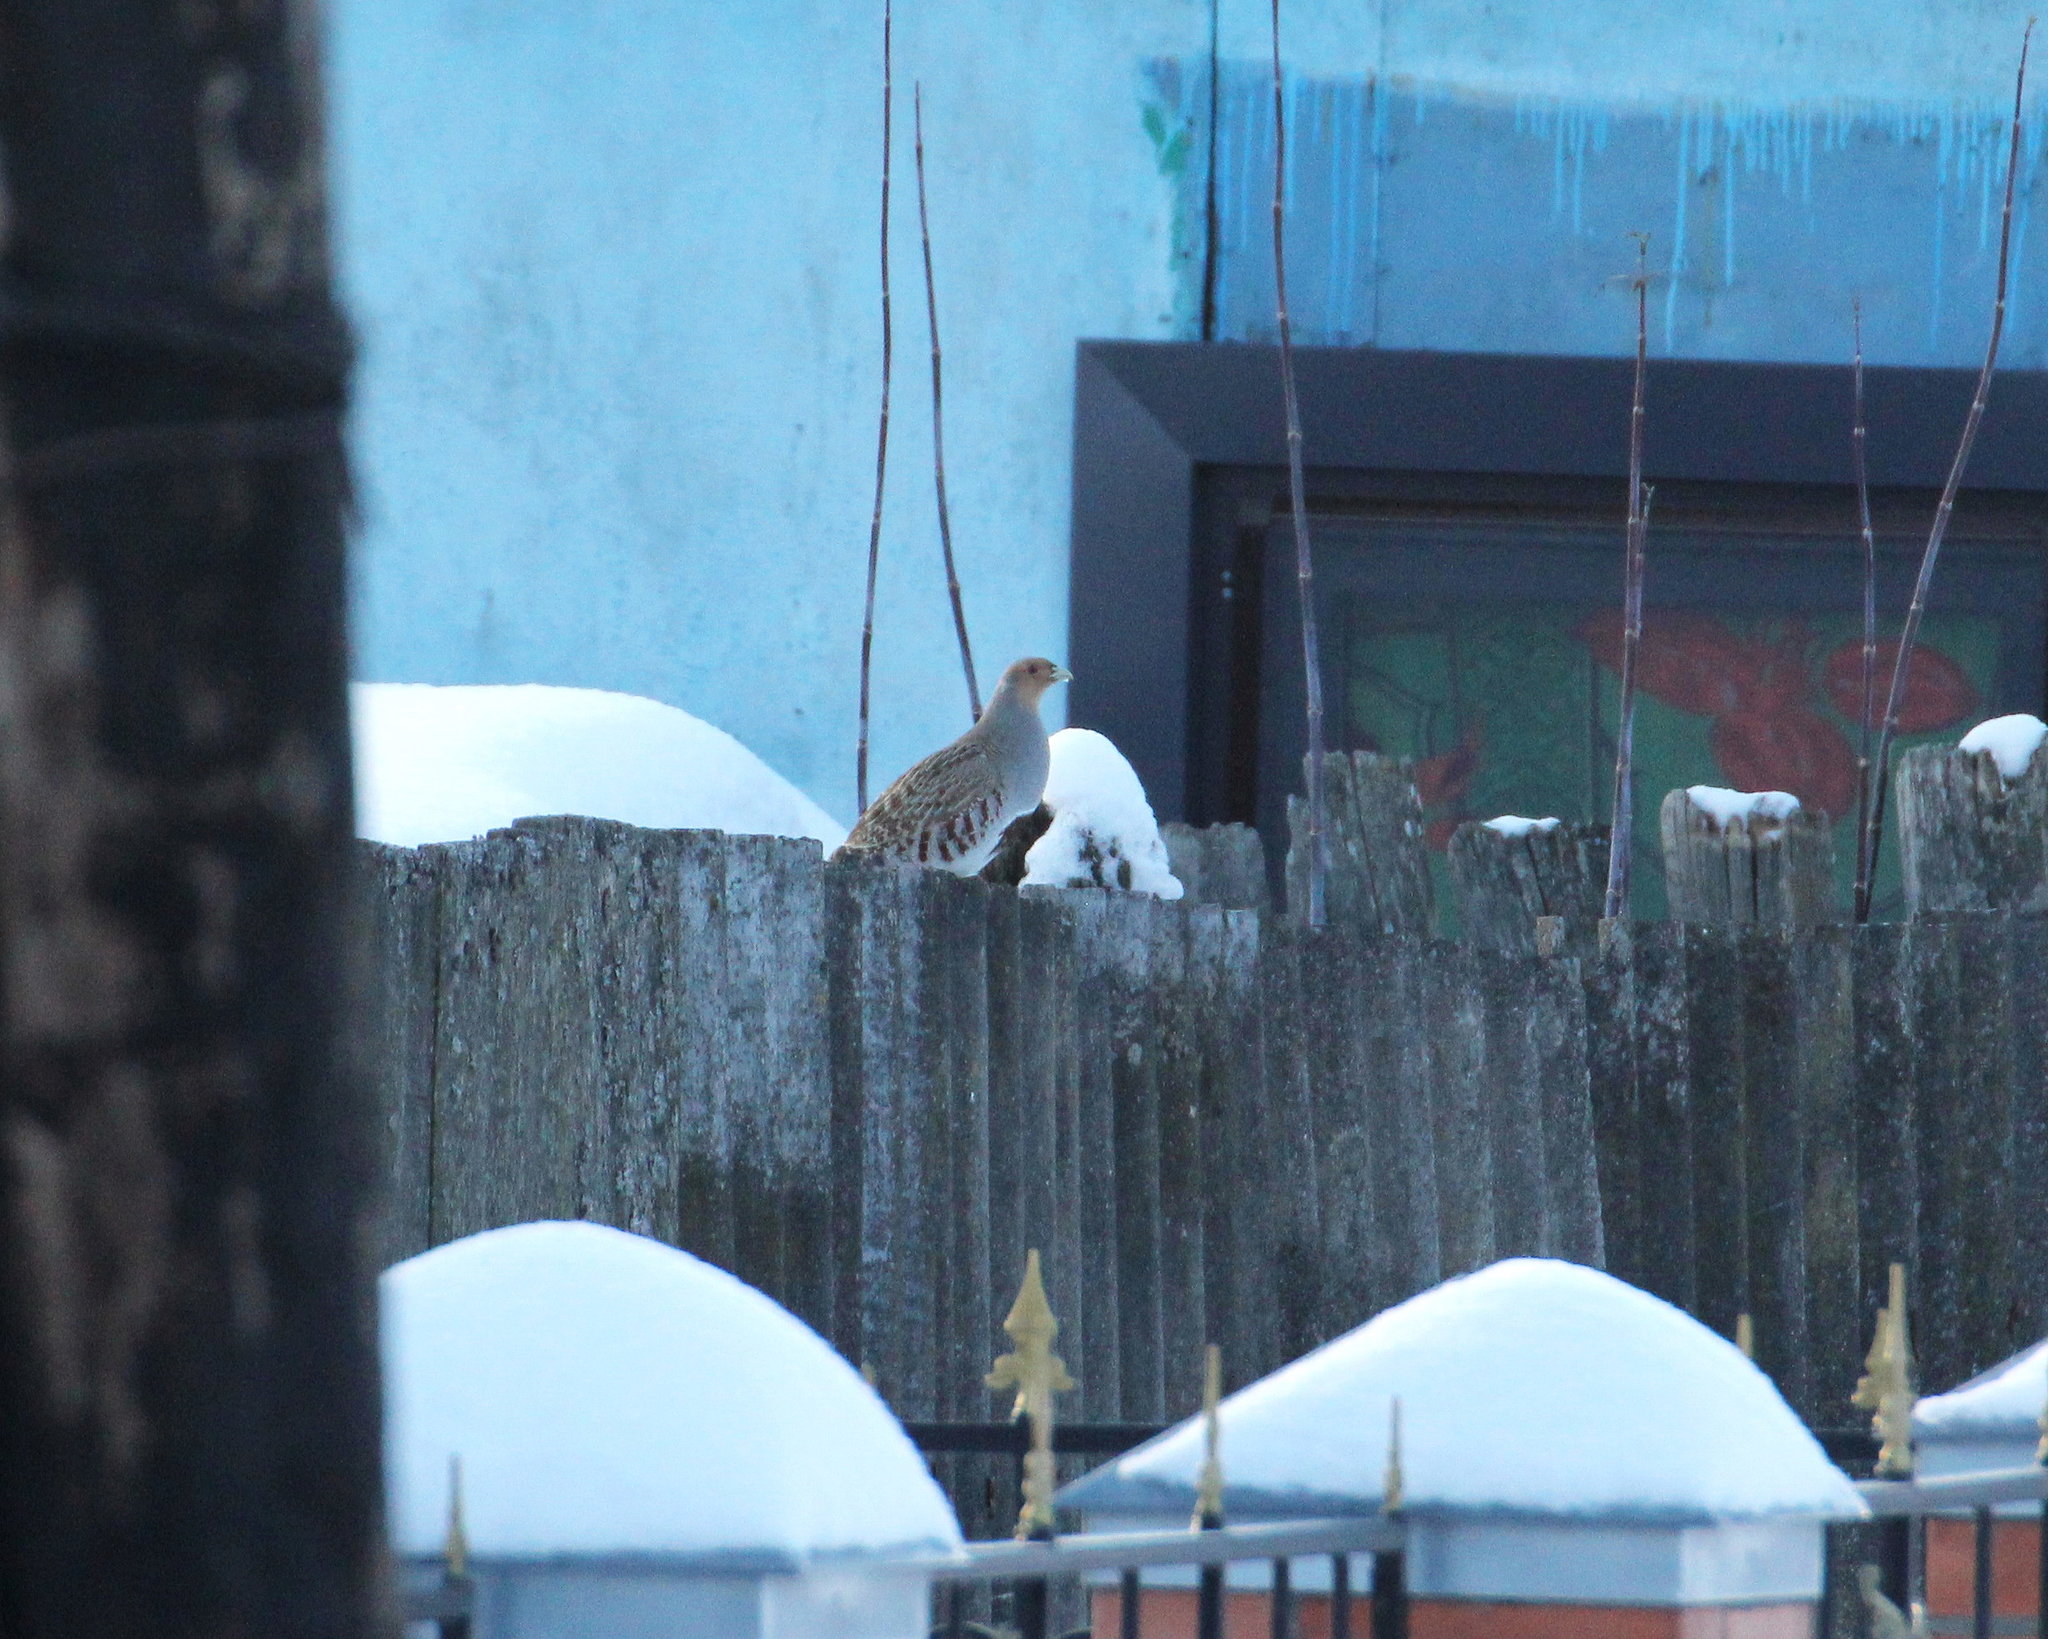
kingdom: Animalia
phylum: Chordata
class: Aves
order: Galliformes
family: Phasianidae
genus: Perdix
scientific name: Perdix perdix
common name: Grey partridge
